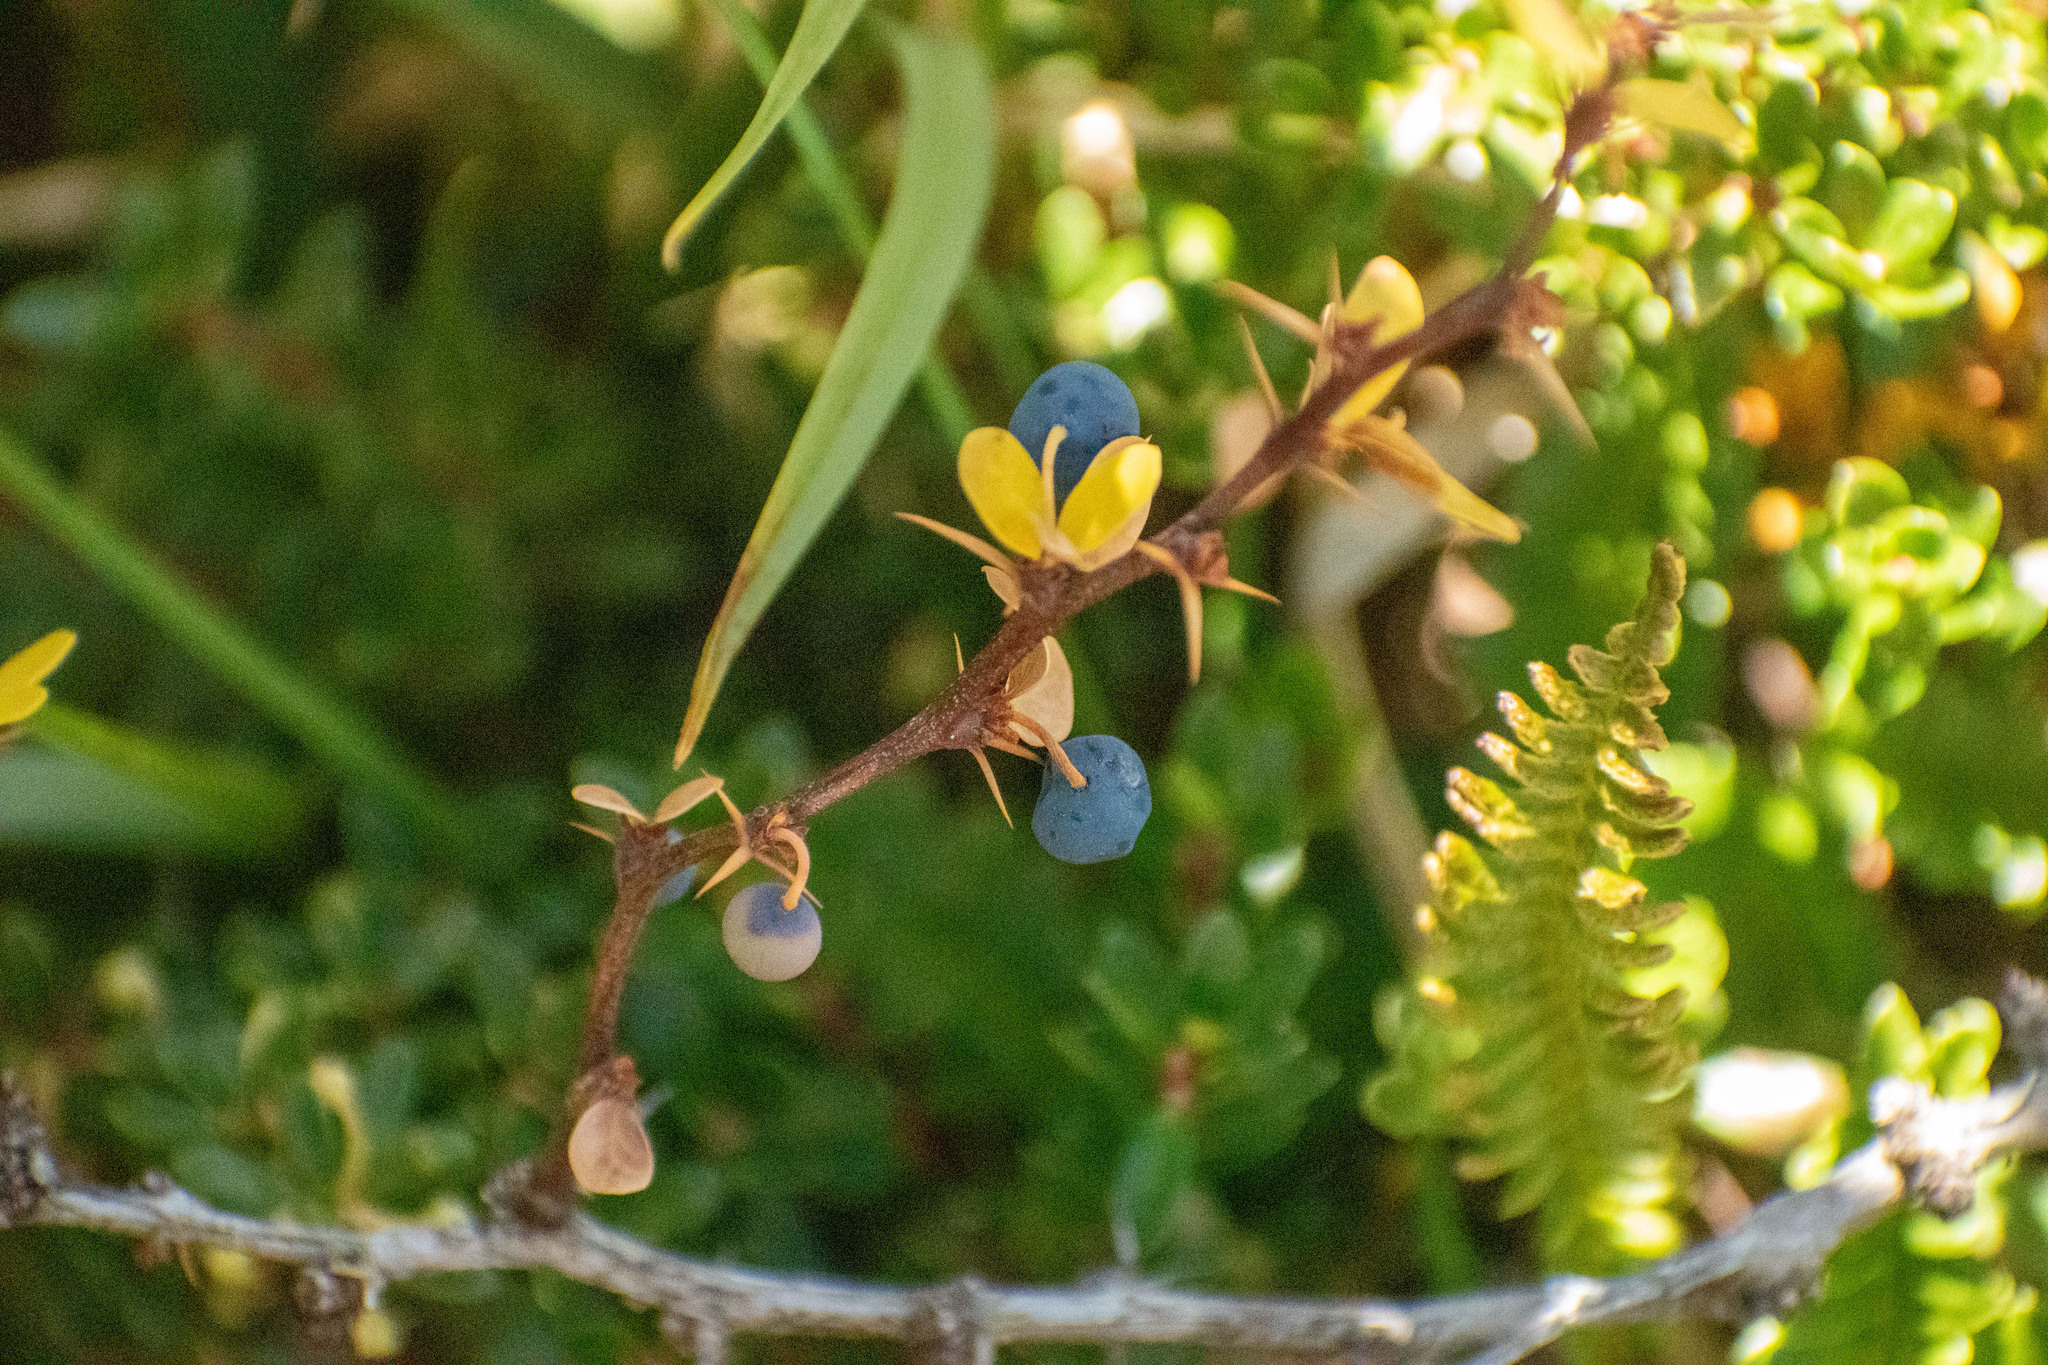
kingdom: Plantae
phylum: Tracheophyta
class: Magnoliopsida
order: Ranunculales
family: Berberidaceae
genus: Berberis
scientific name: Berberis microphylla
